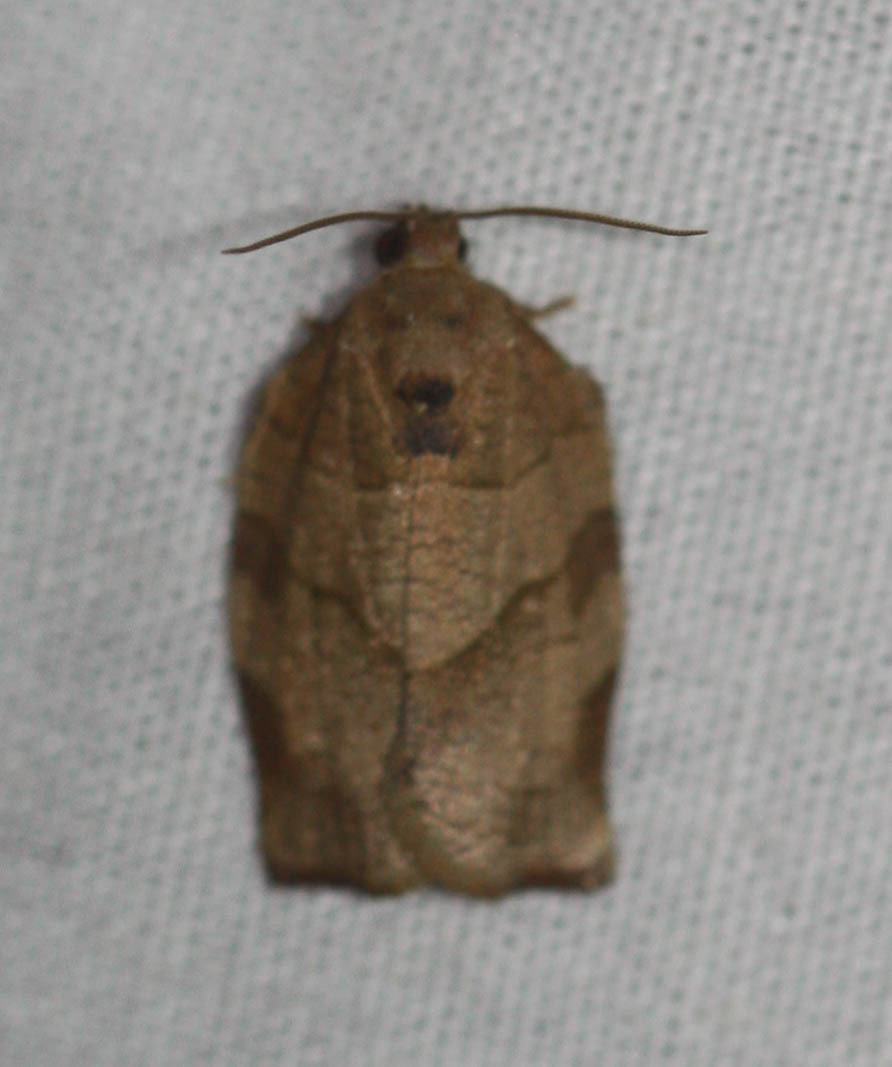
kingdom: Animalia
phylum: Arthropoda
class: Insecta
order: Lepidoptera
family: Tortricidae
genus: Choristoneura
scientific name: Choristoneura rosaceana
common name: Oblique-banded leafroller moth
